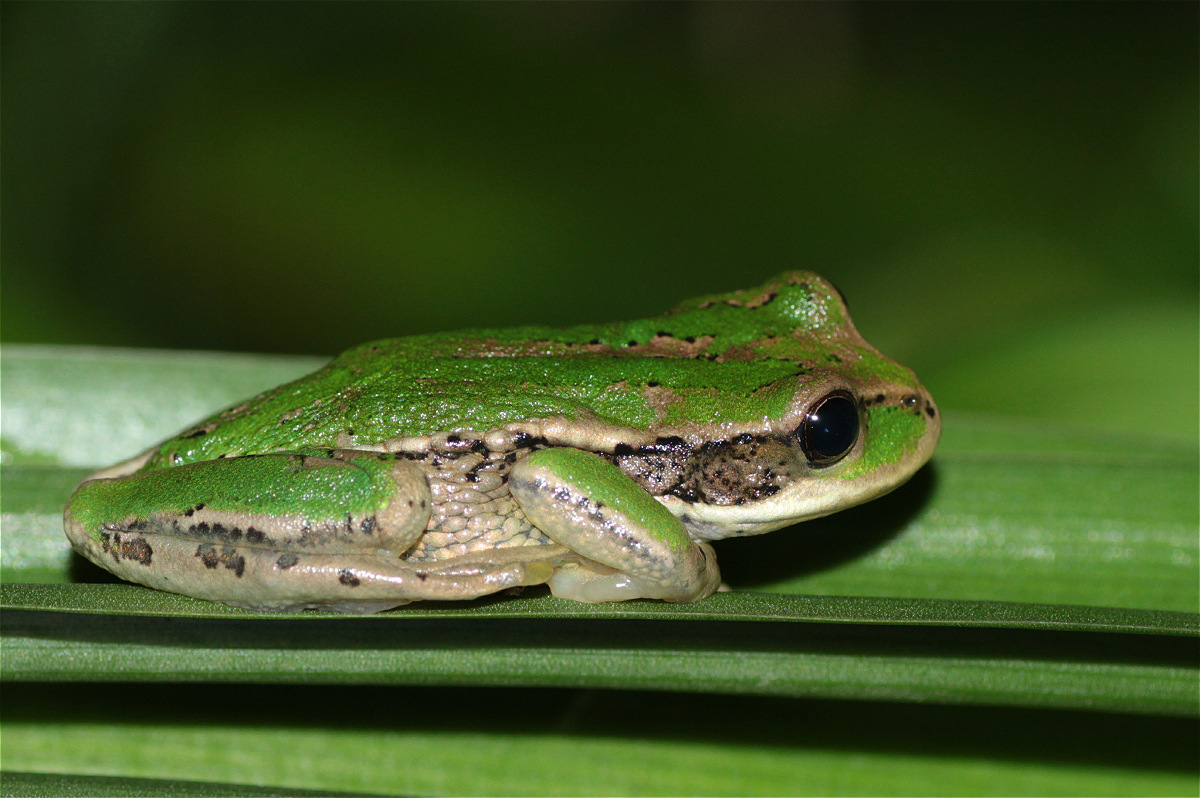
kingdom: Animalia
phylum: Chordata
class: Amphibia
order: Anura
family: Hemiphractidae
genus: Gastrotheca
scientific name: Gastrotheca cuencana
